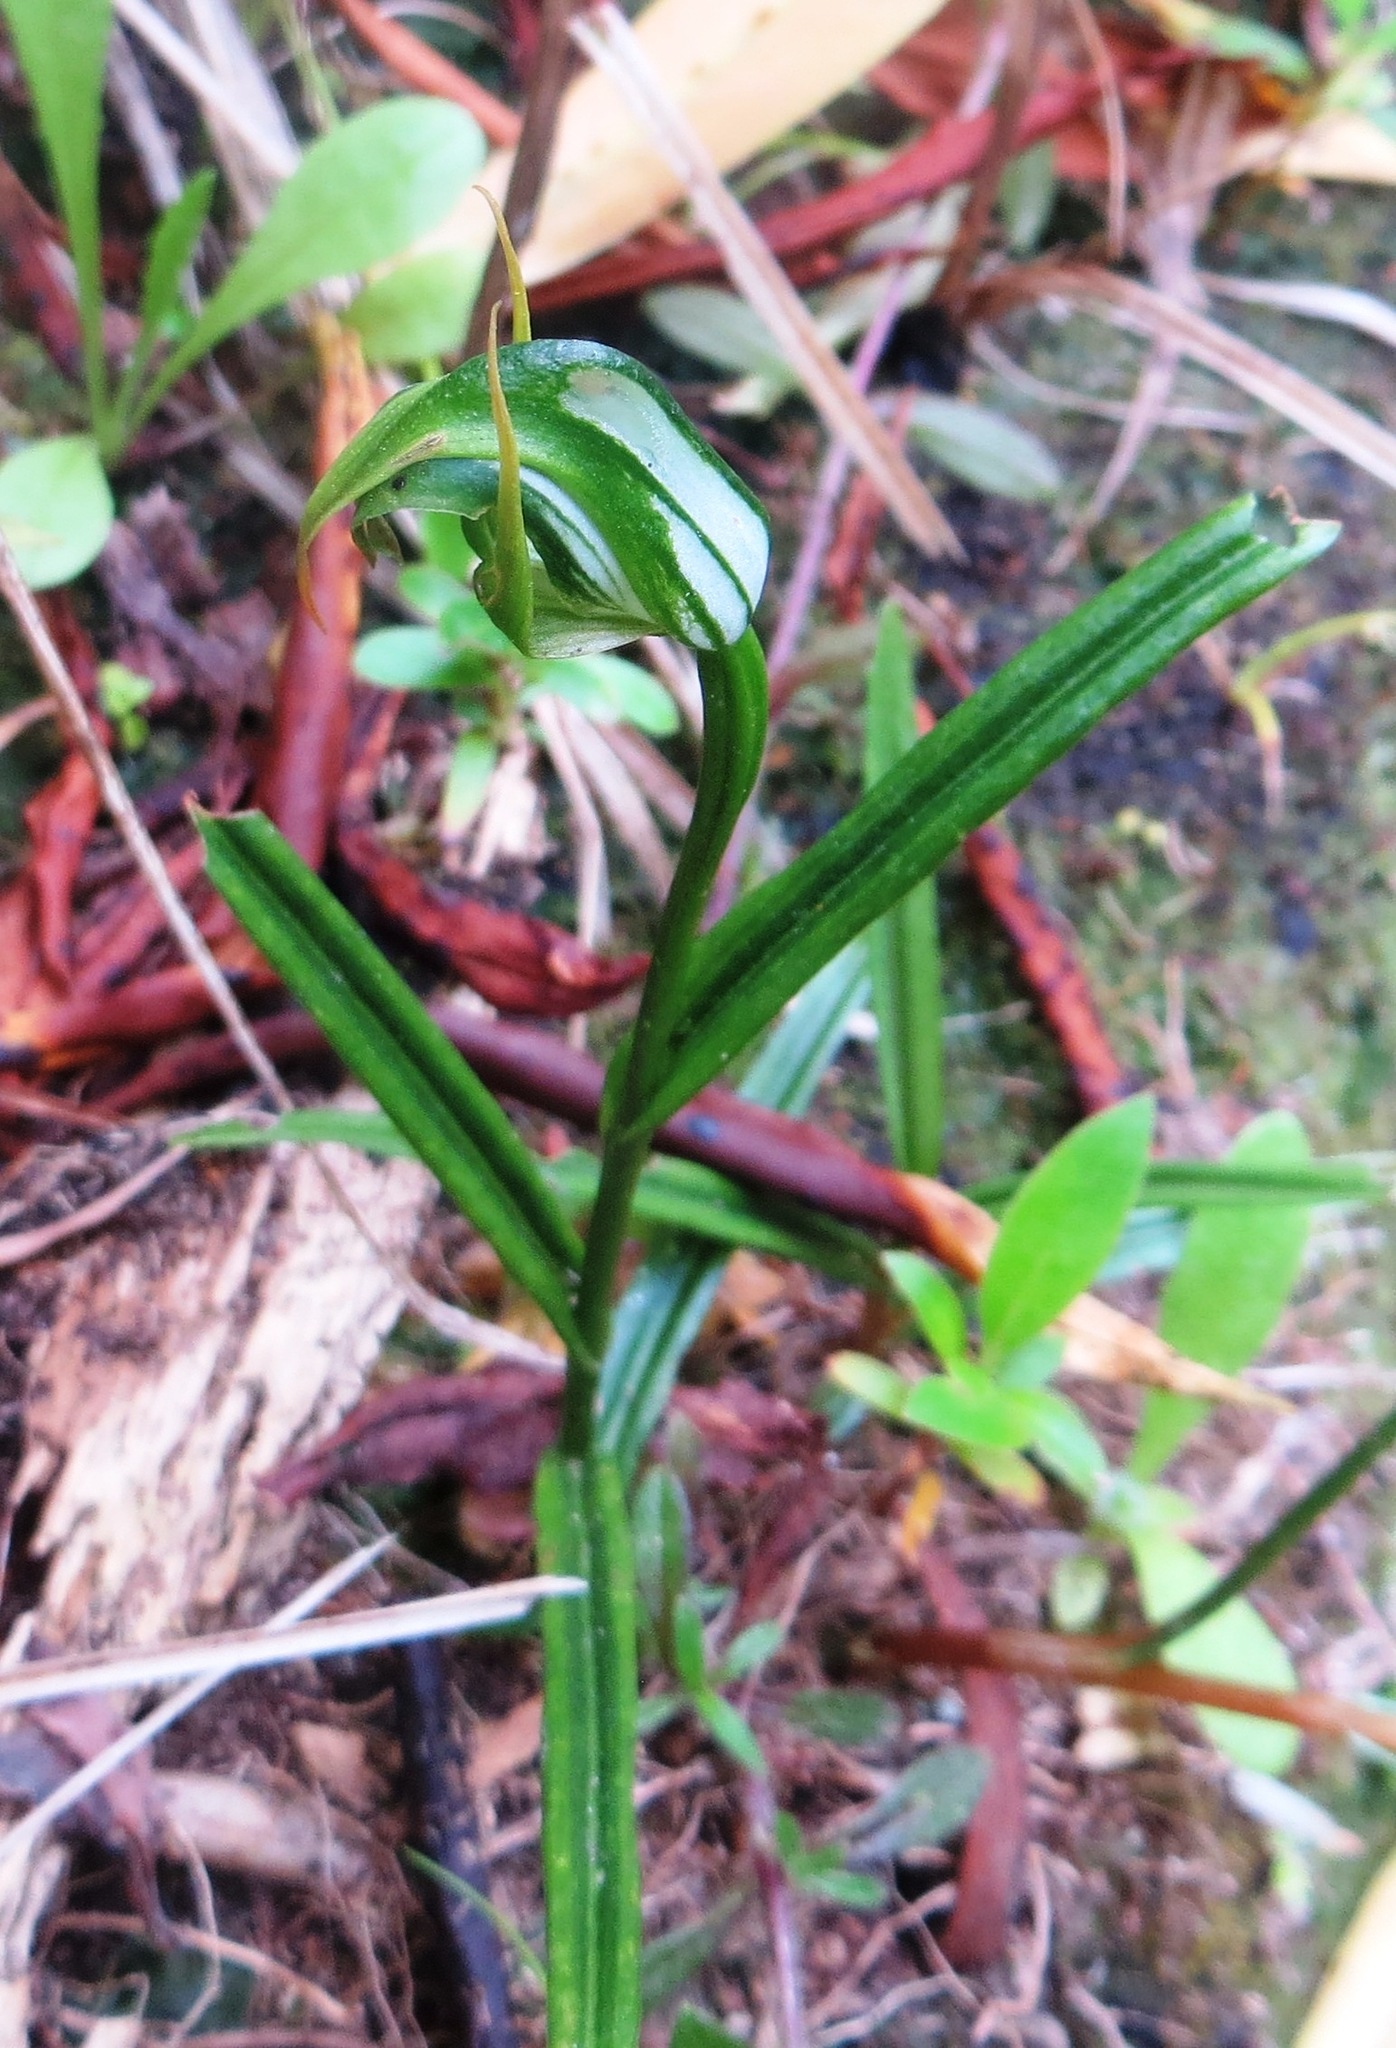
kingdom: Plantae
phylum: Tracheophyta
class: Liliopsida
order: Asparagales
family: Orchidaceae
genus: Pterostylis
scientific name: Pterostylis graminea
